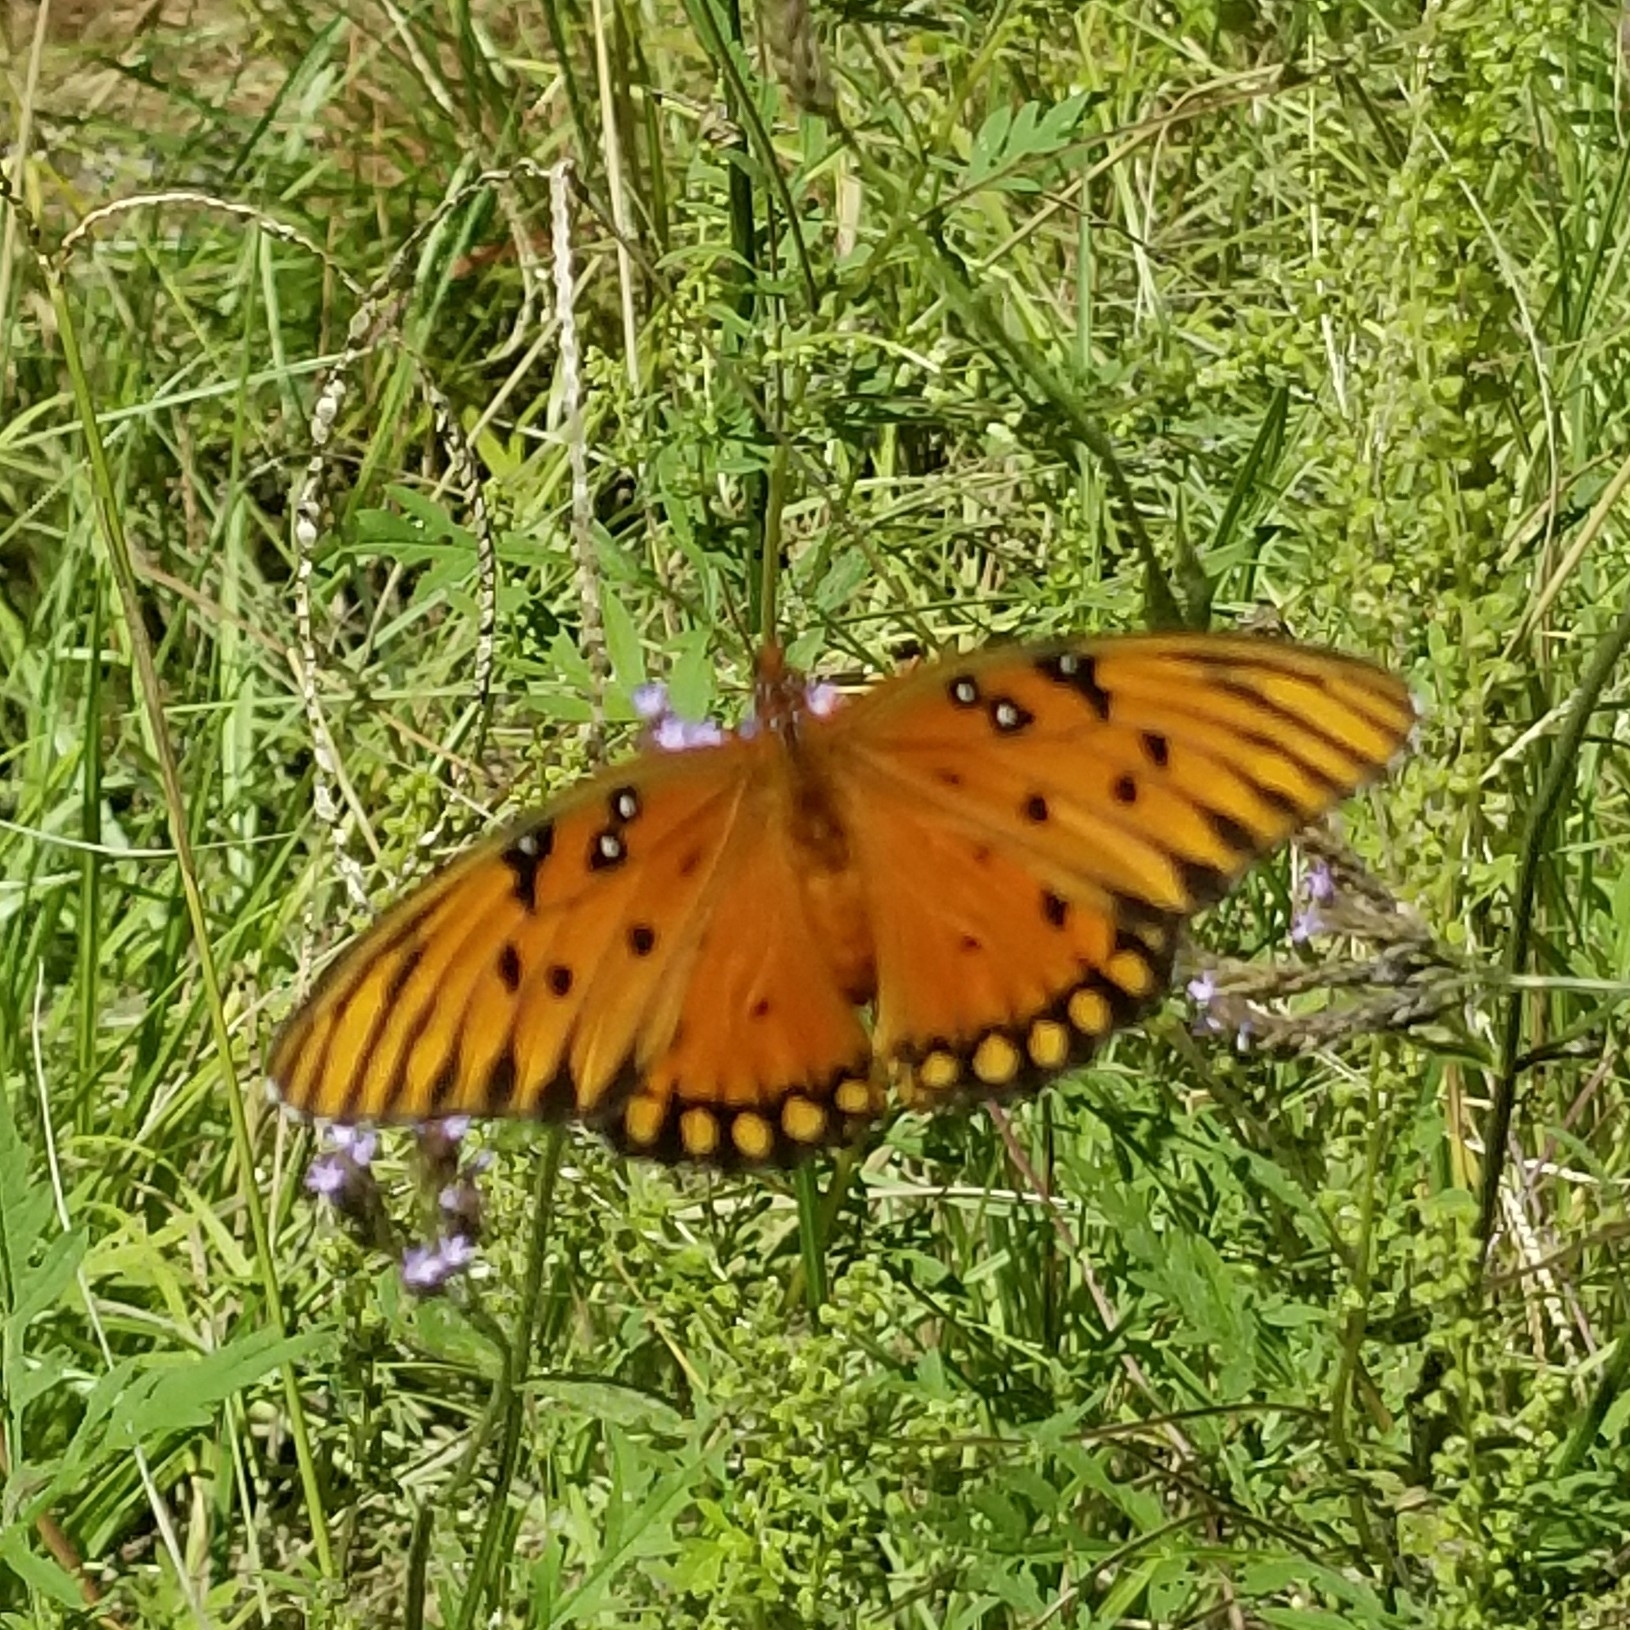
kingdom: Animalia
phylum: Arthropoda
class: Insecta
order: Lepidoptera
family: Nymphalidae
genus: Dione
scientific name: Dione vanillae
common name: Gulf fritillary
